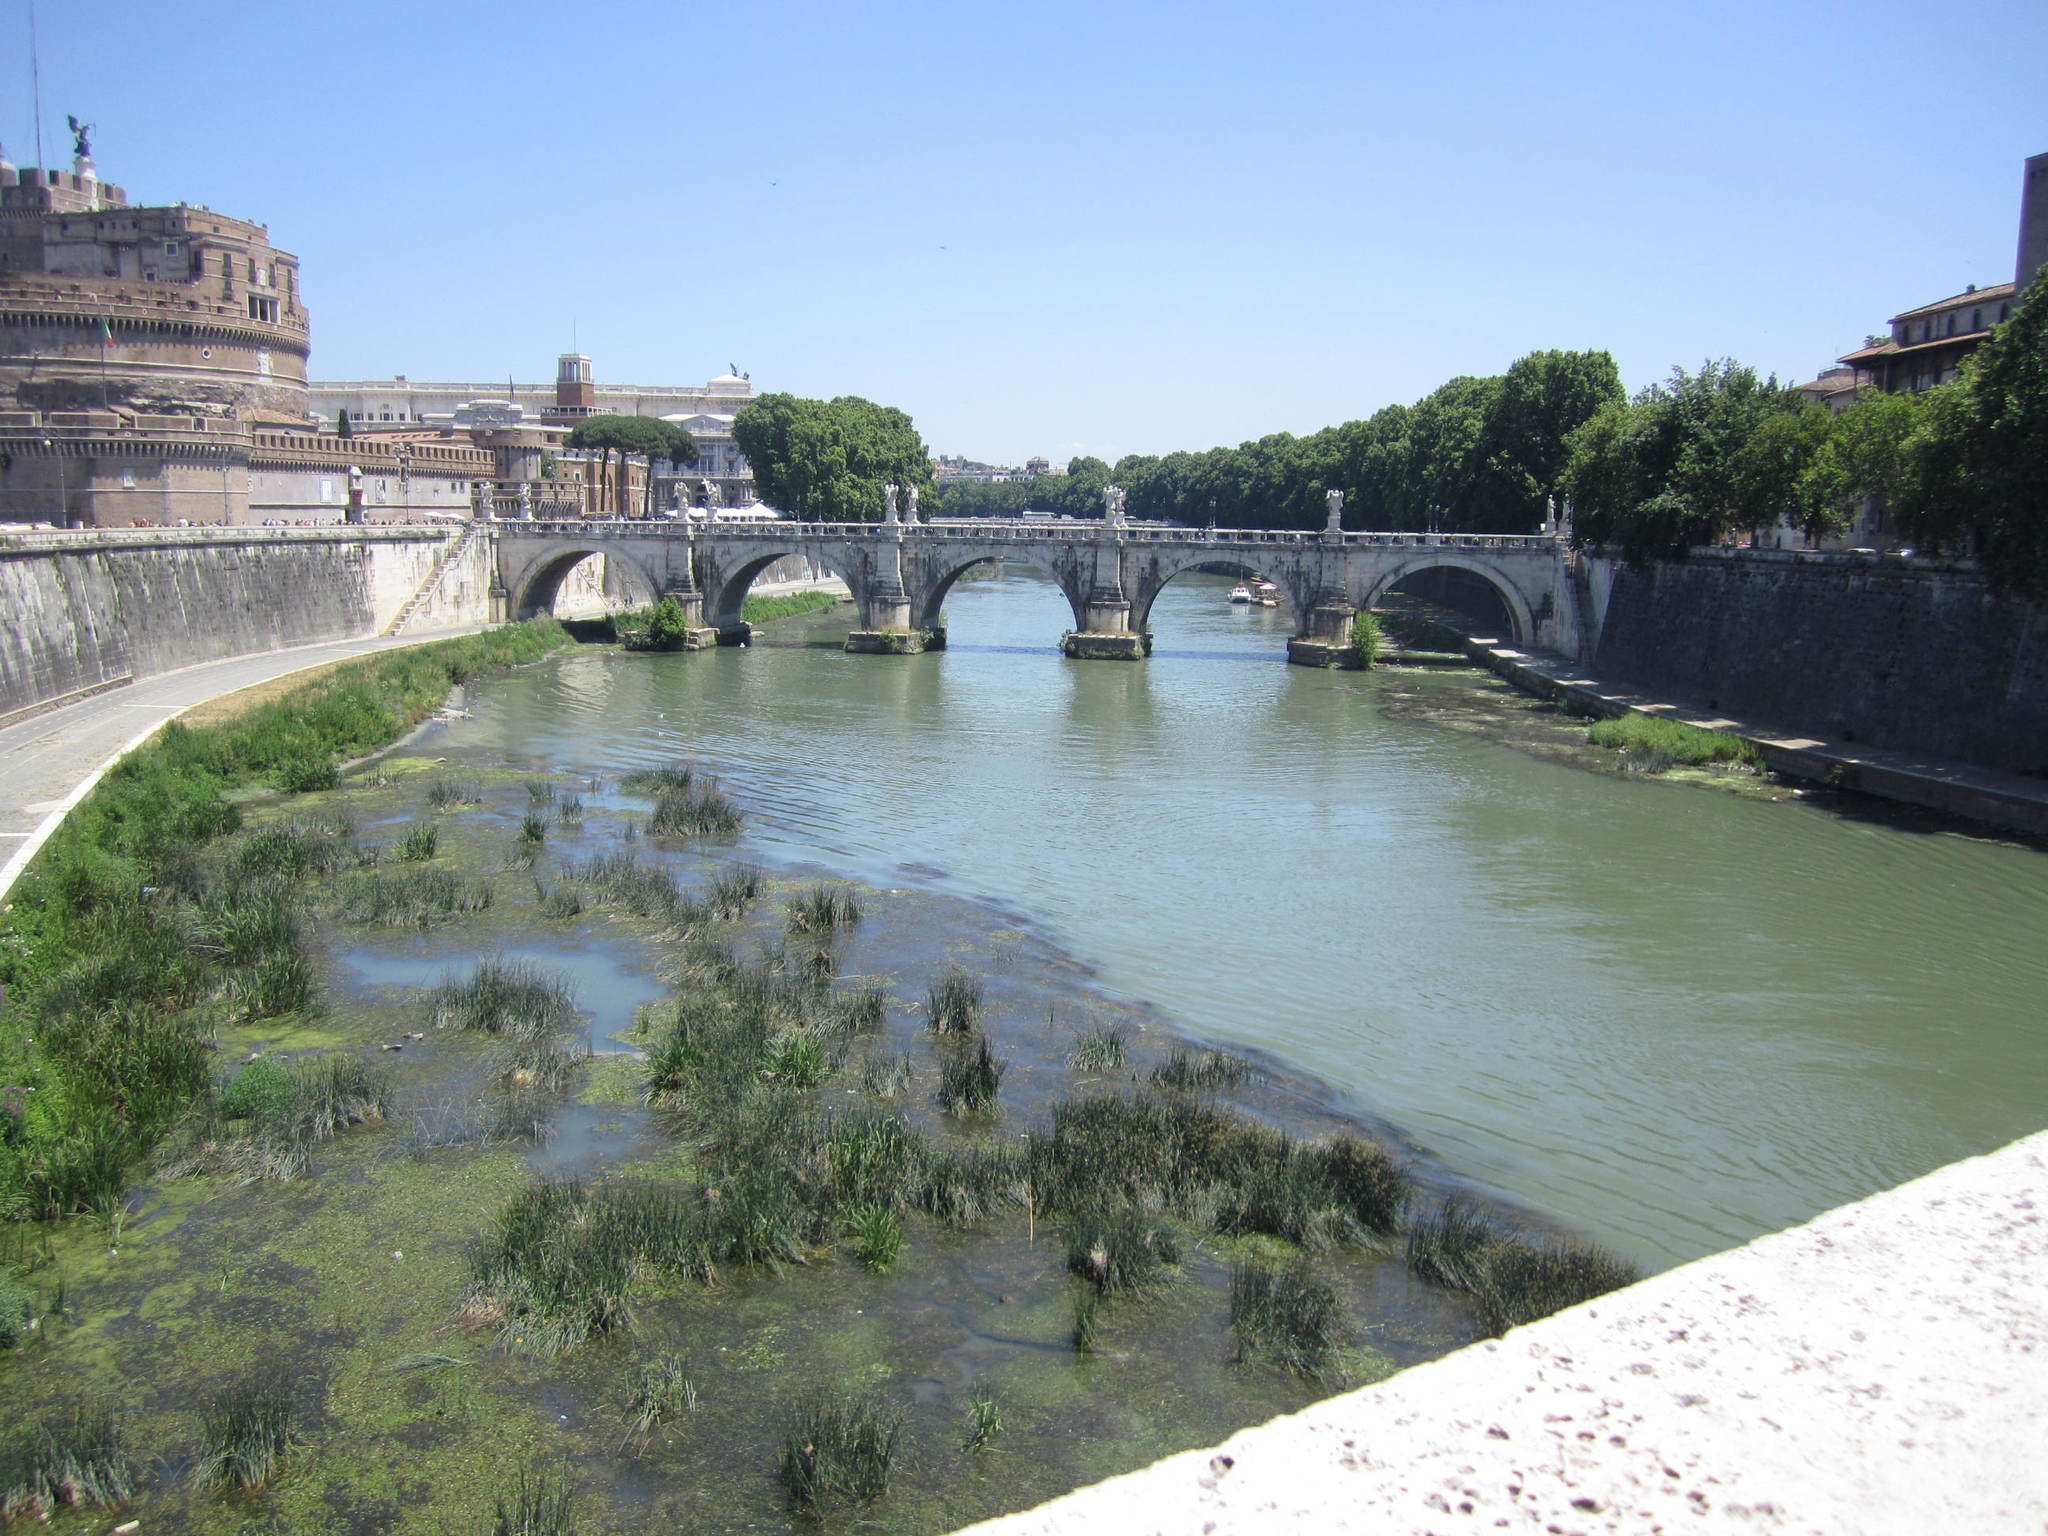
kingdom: Animalia
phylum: Chordata
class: Mammalia
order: Rodentia
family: Myocastoridae
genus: Myocastor
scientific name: Myocastor coypus
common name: Coypu
